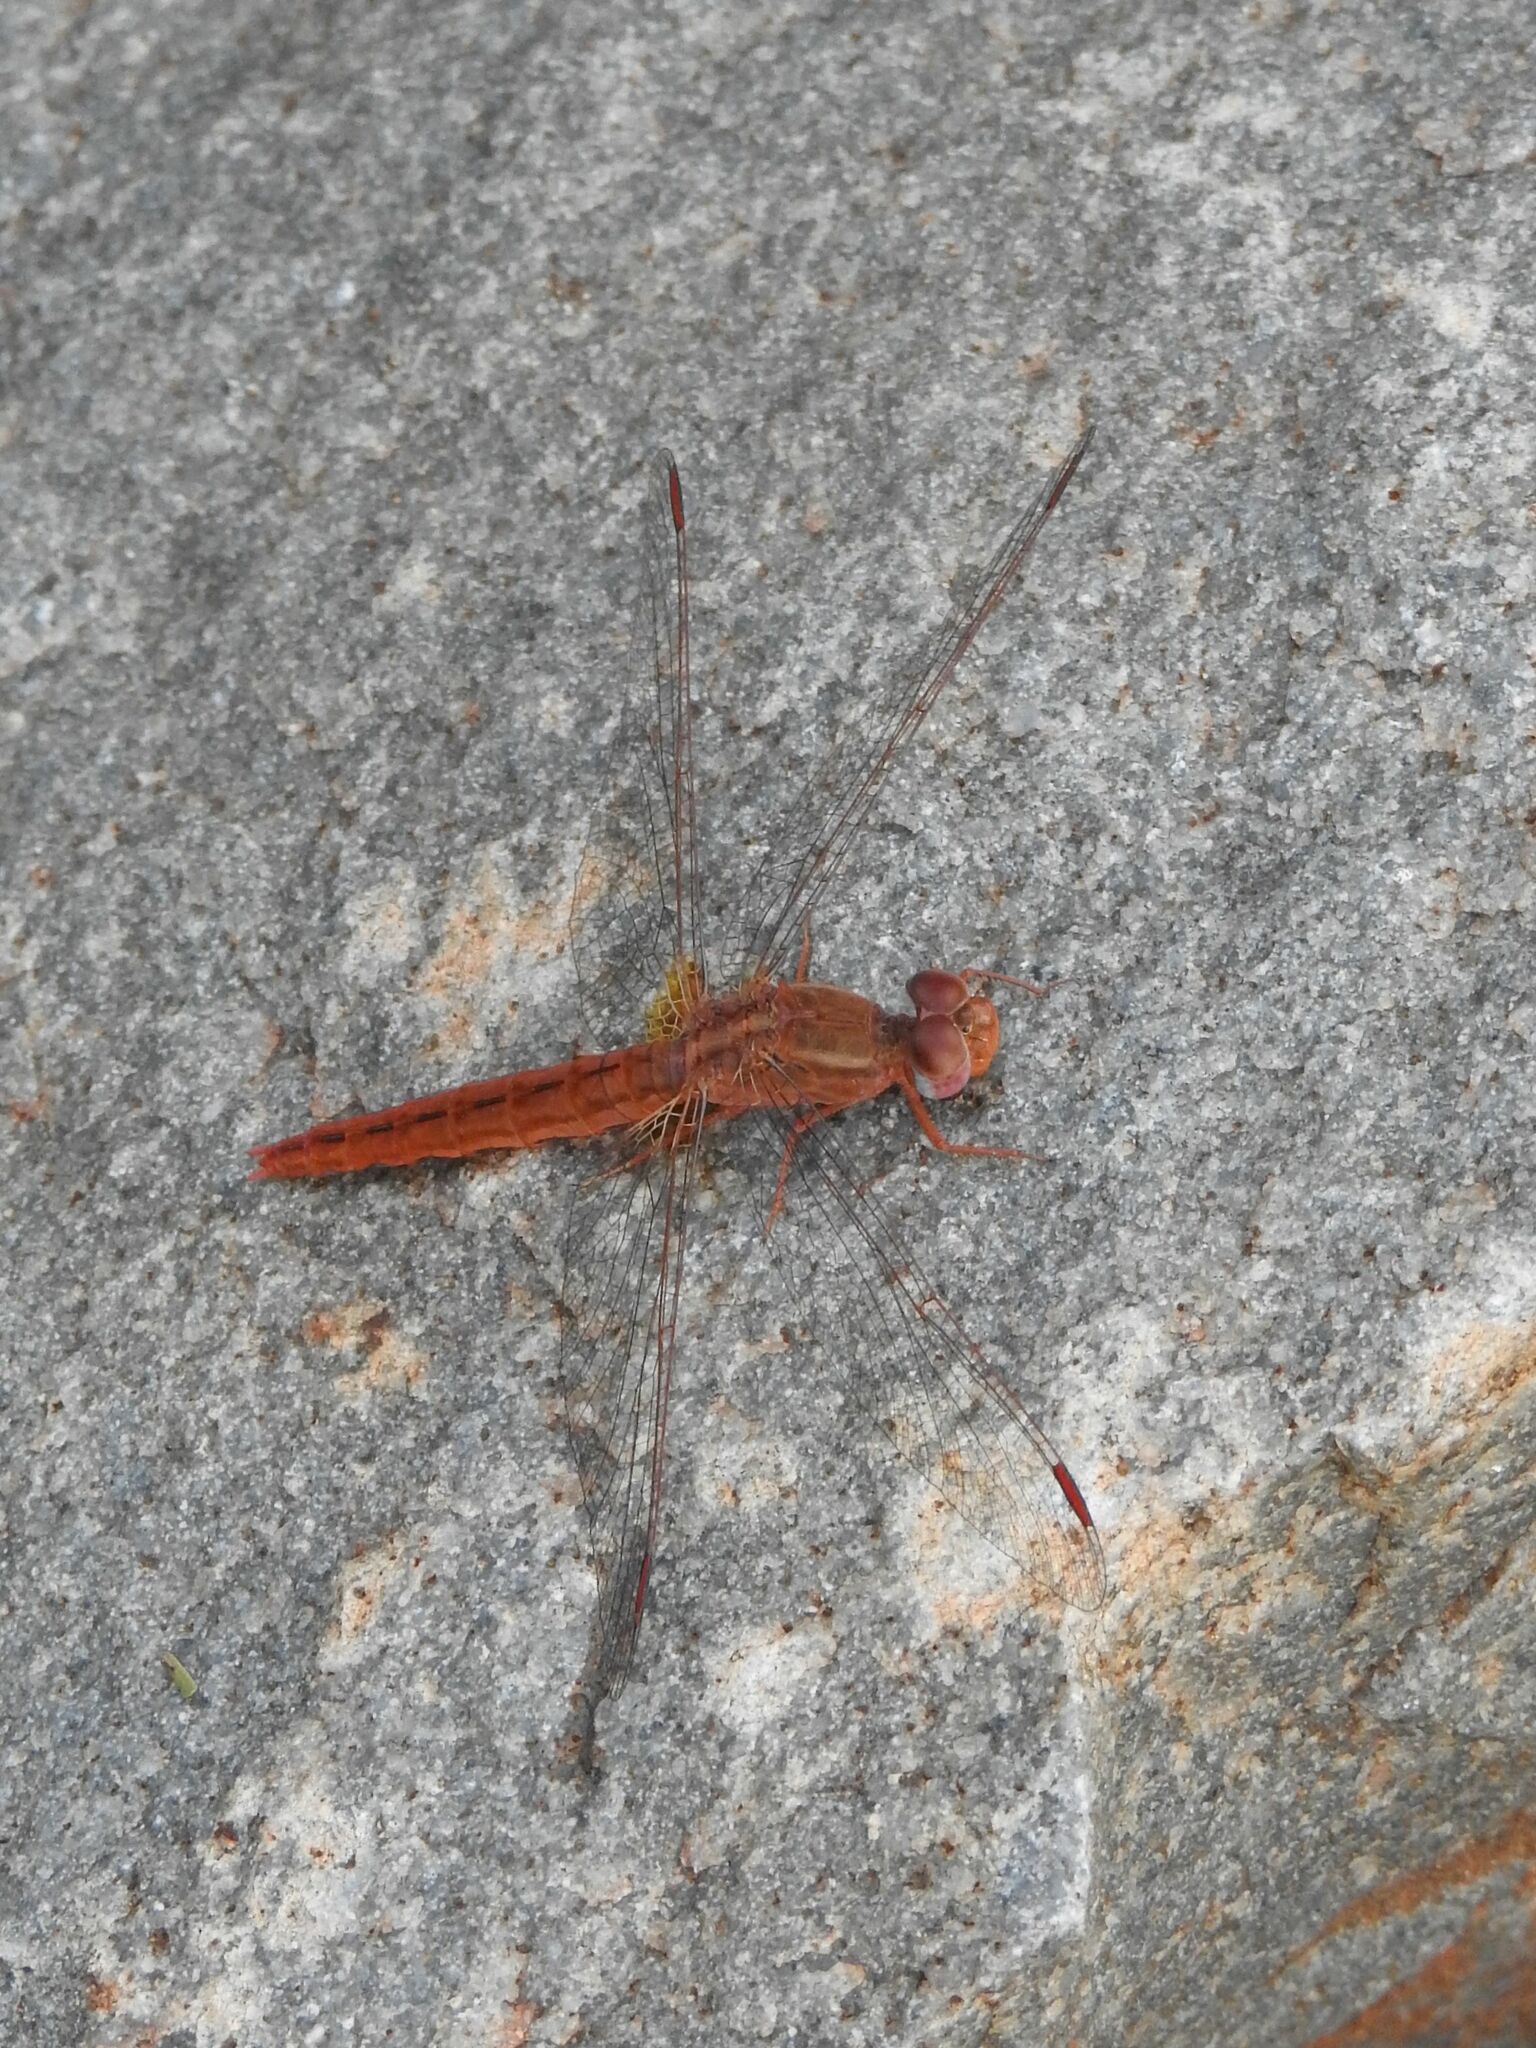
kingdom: Animalia
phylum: Arthropoda
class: Insecta
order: Odonata
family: Libellulidae
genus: Crocothemis
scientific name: Crocothemis sanguinolenta
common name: Little scarlet
